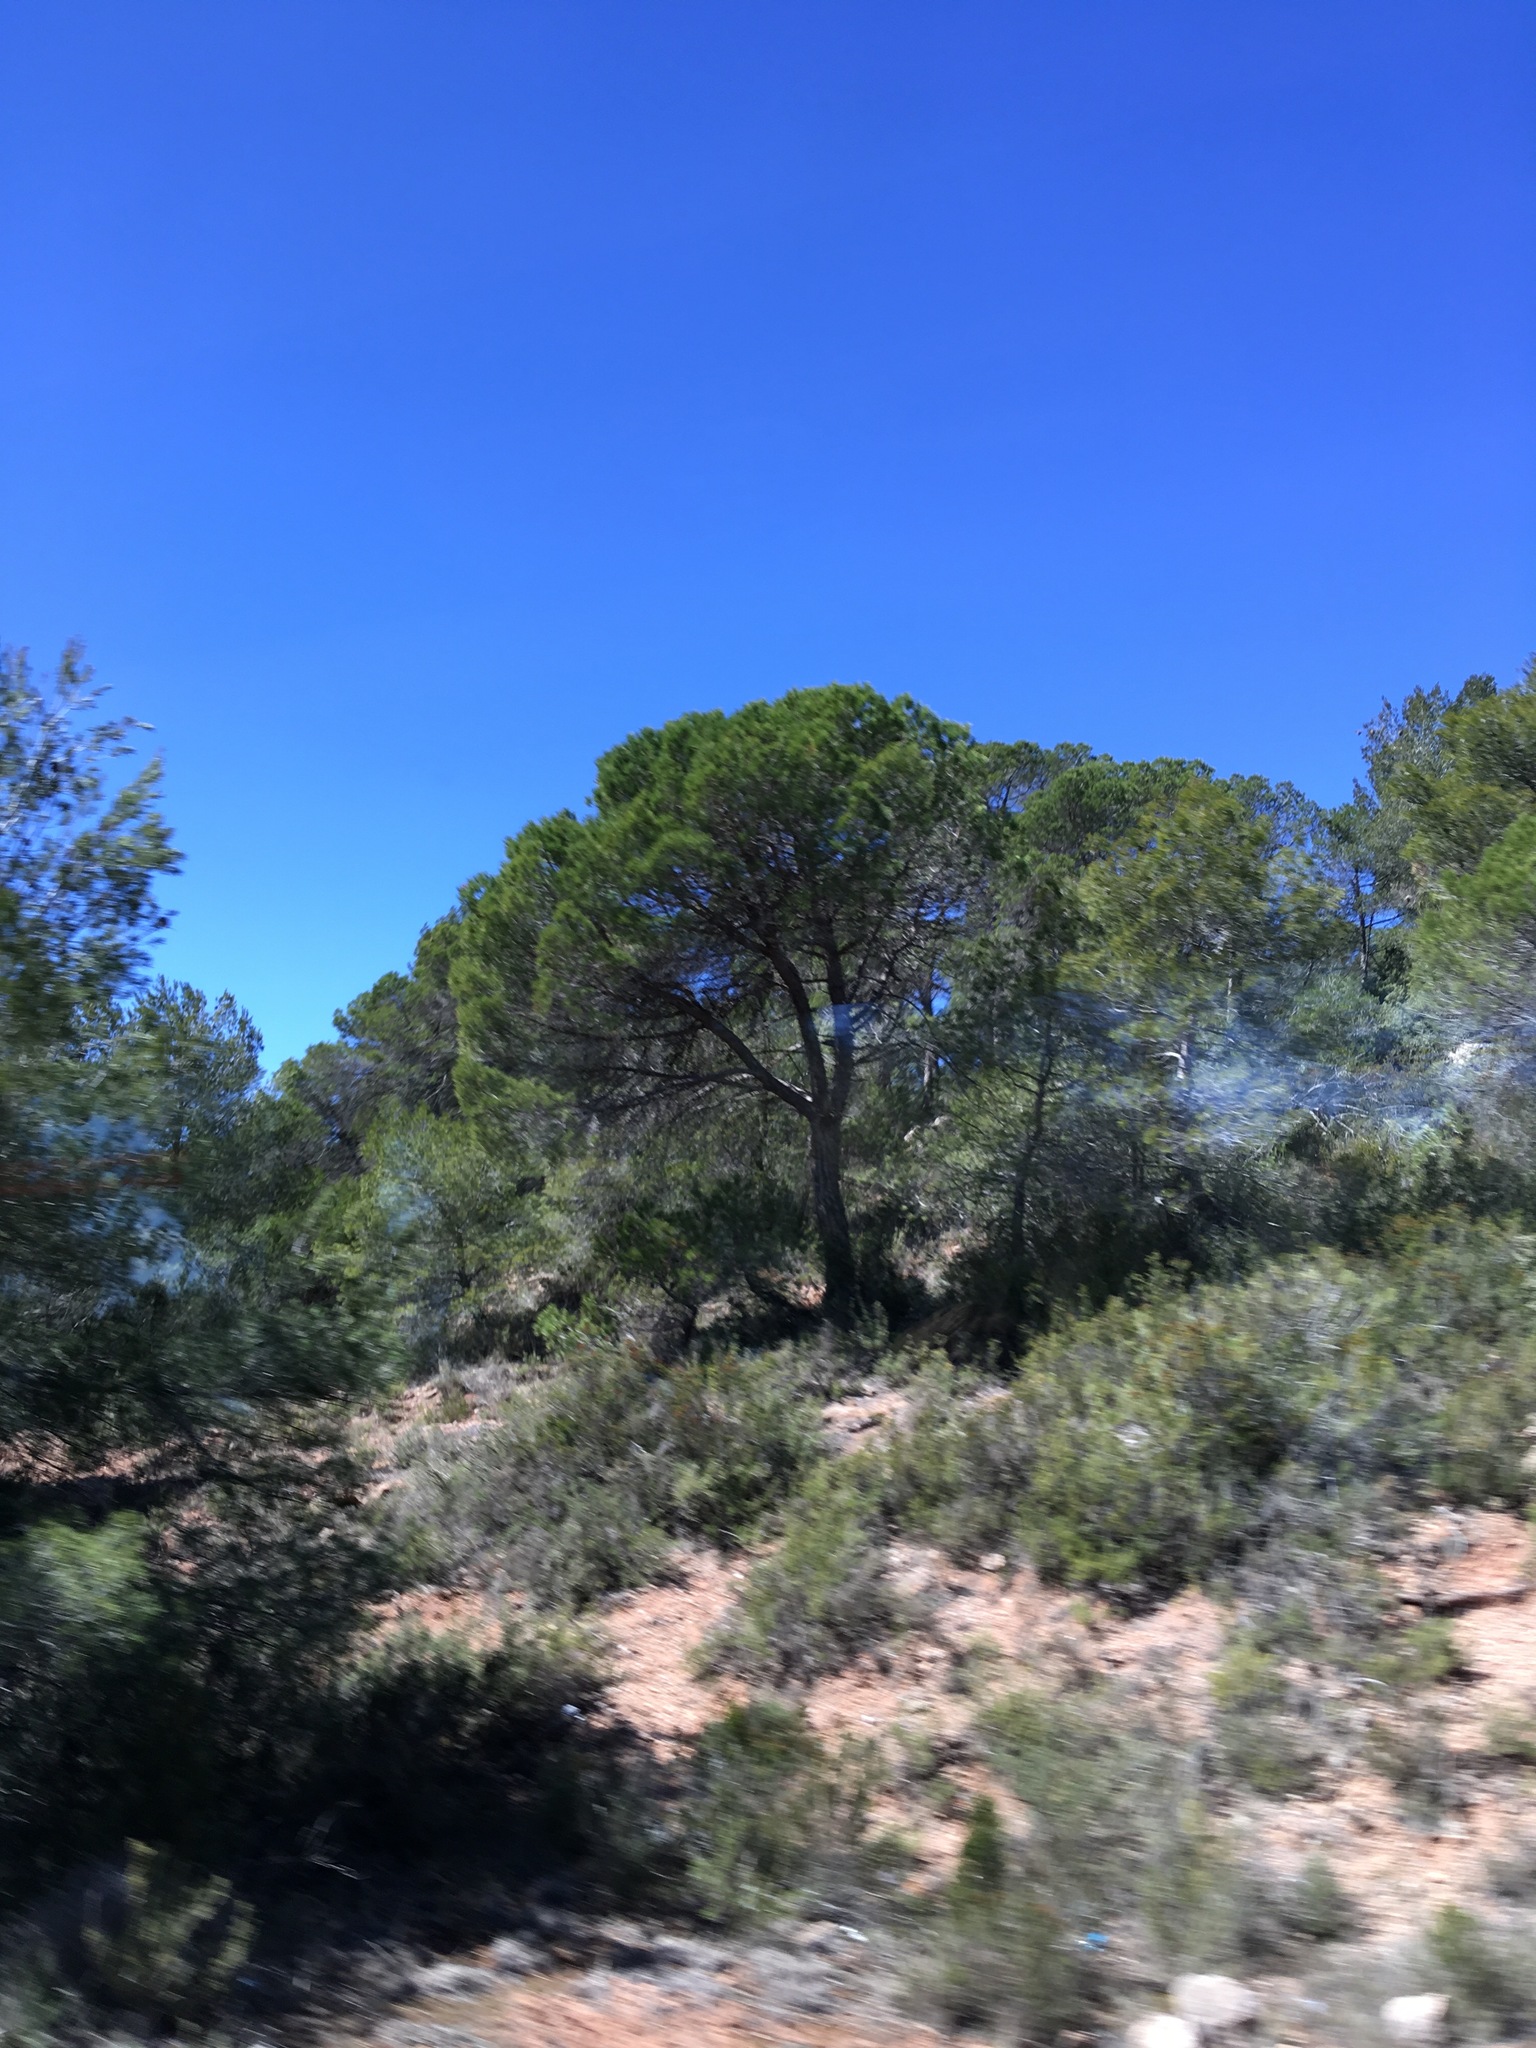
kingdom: Plantae
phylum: Tracheophyta
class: Pinopsida
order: Pinales
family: Pinaceae
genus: Pinus
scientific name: Pinus pinea
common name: Italian stone pine
